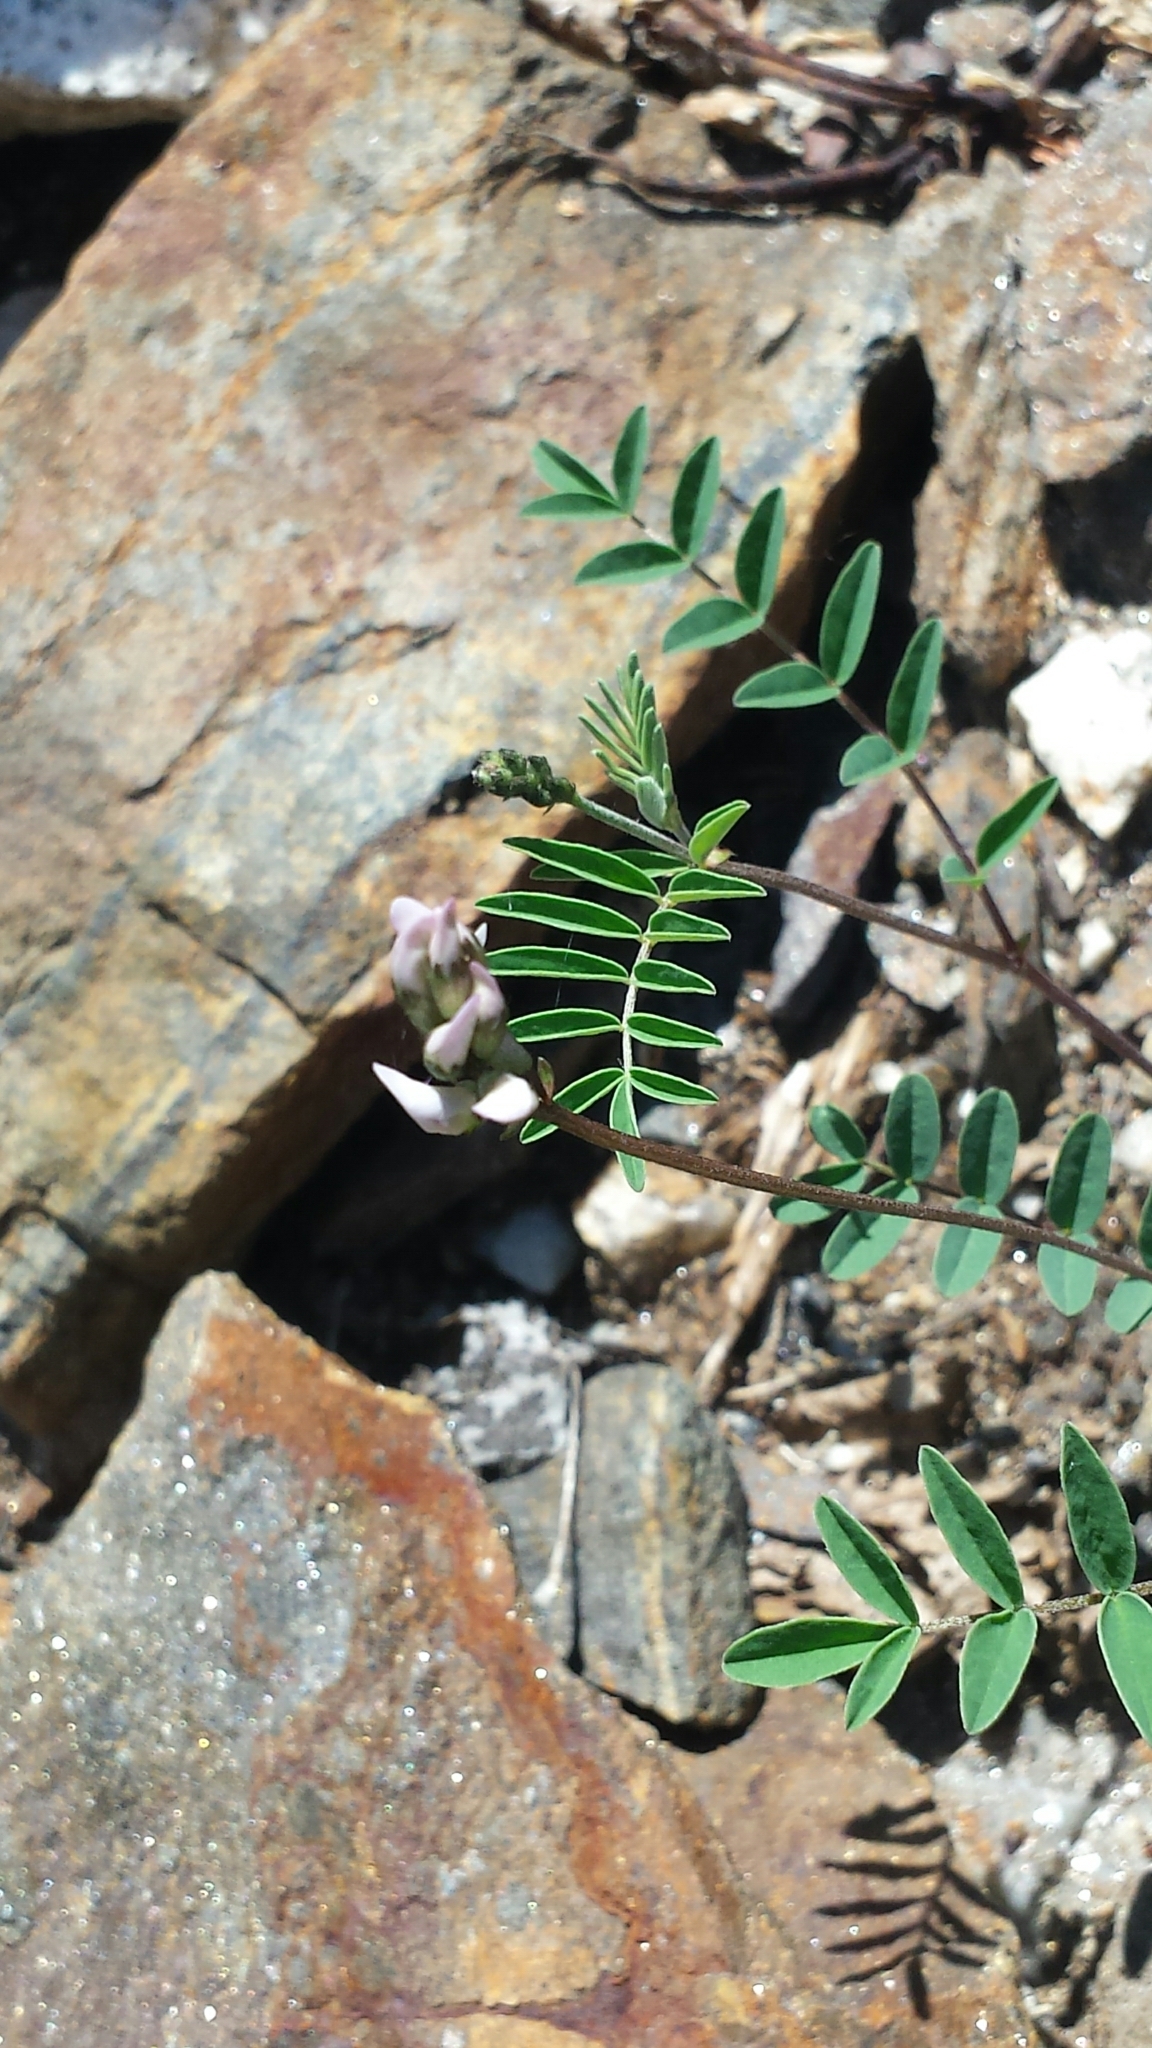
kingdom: Plantae
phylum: Tracheophyta
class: Magnoliopsida
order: Fabales
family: Fabaceae
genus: Astragalus
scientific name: Astragalus robbinsii
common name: Robbins' milk-vetch
